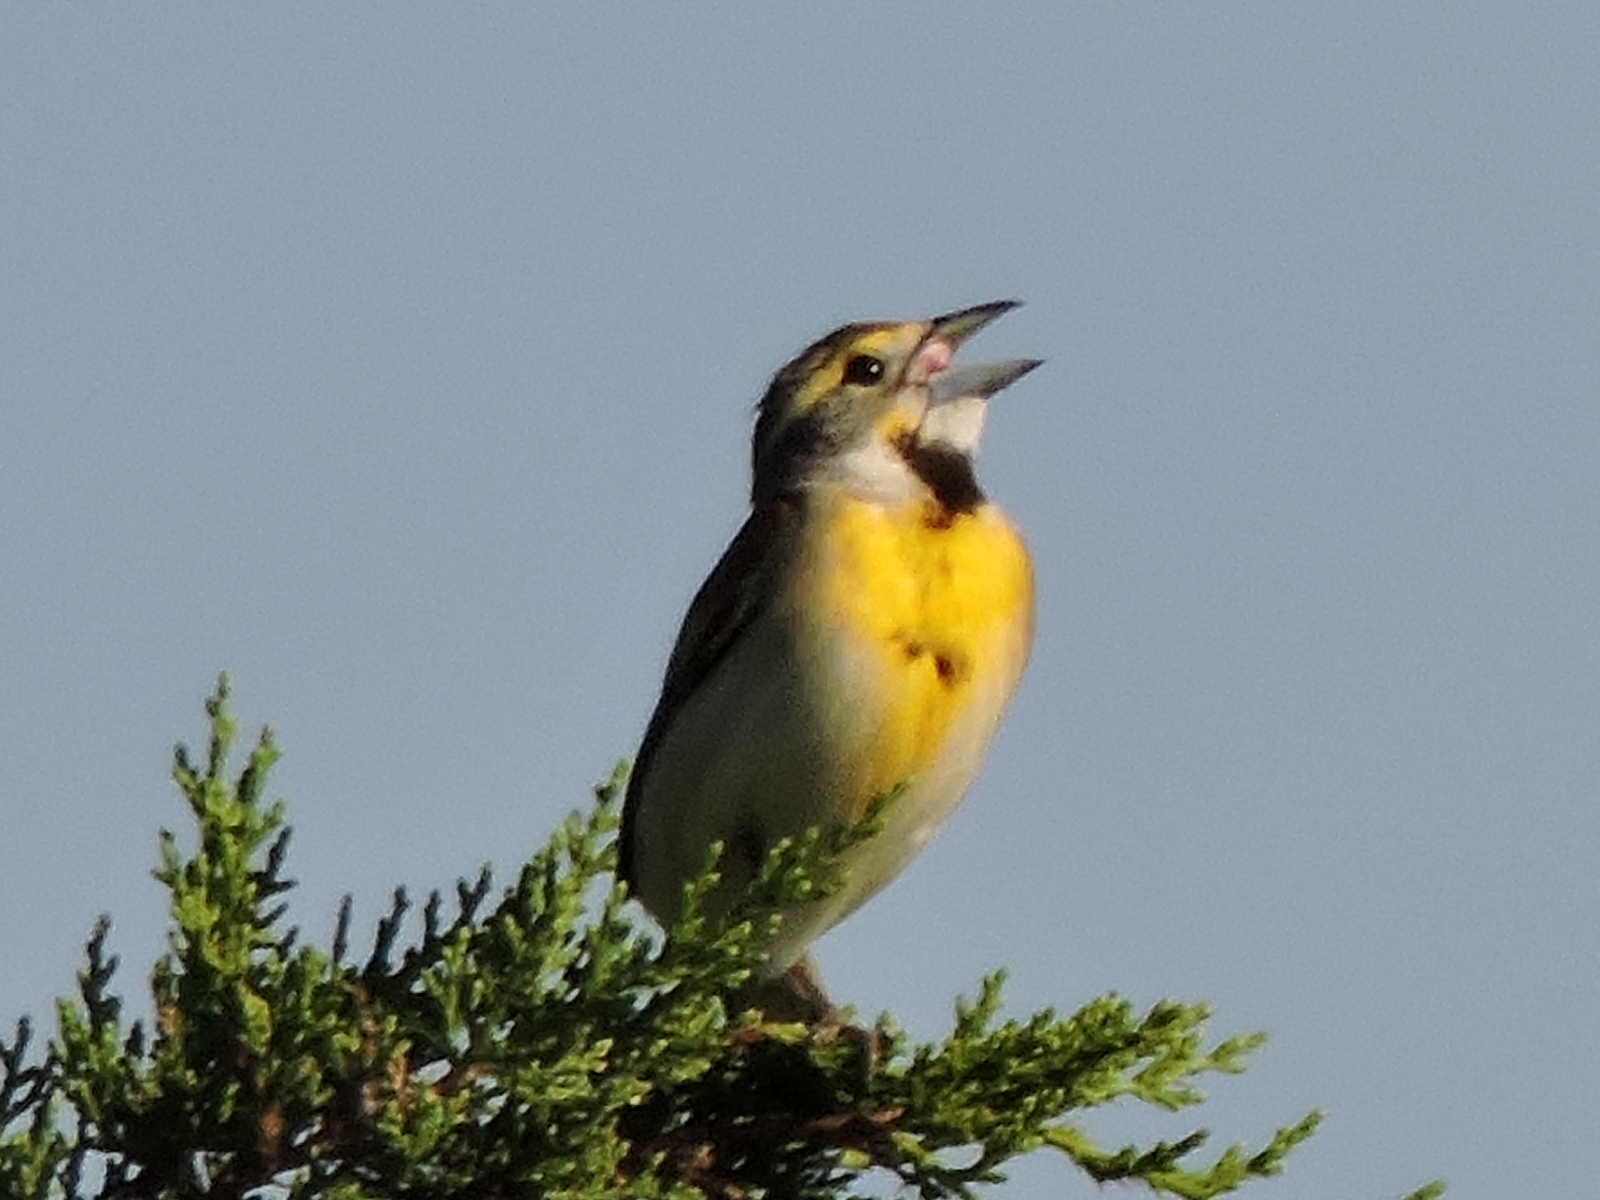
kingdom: Animalia
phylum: Chordata
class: Aves
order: Passeriformes
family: Cardinalidae
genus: Spiza
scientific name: Spiza americana
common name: Dickcissel
